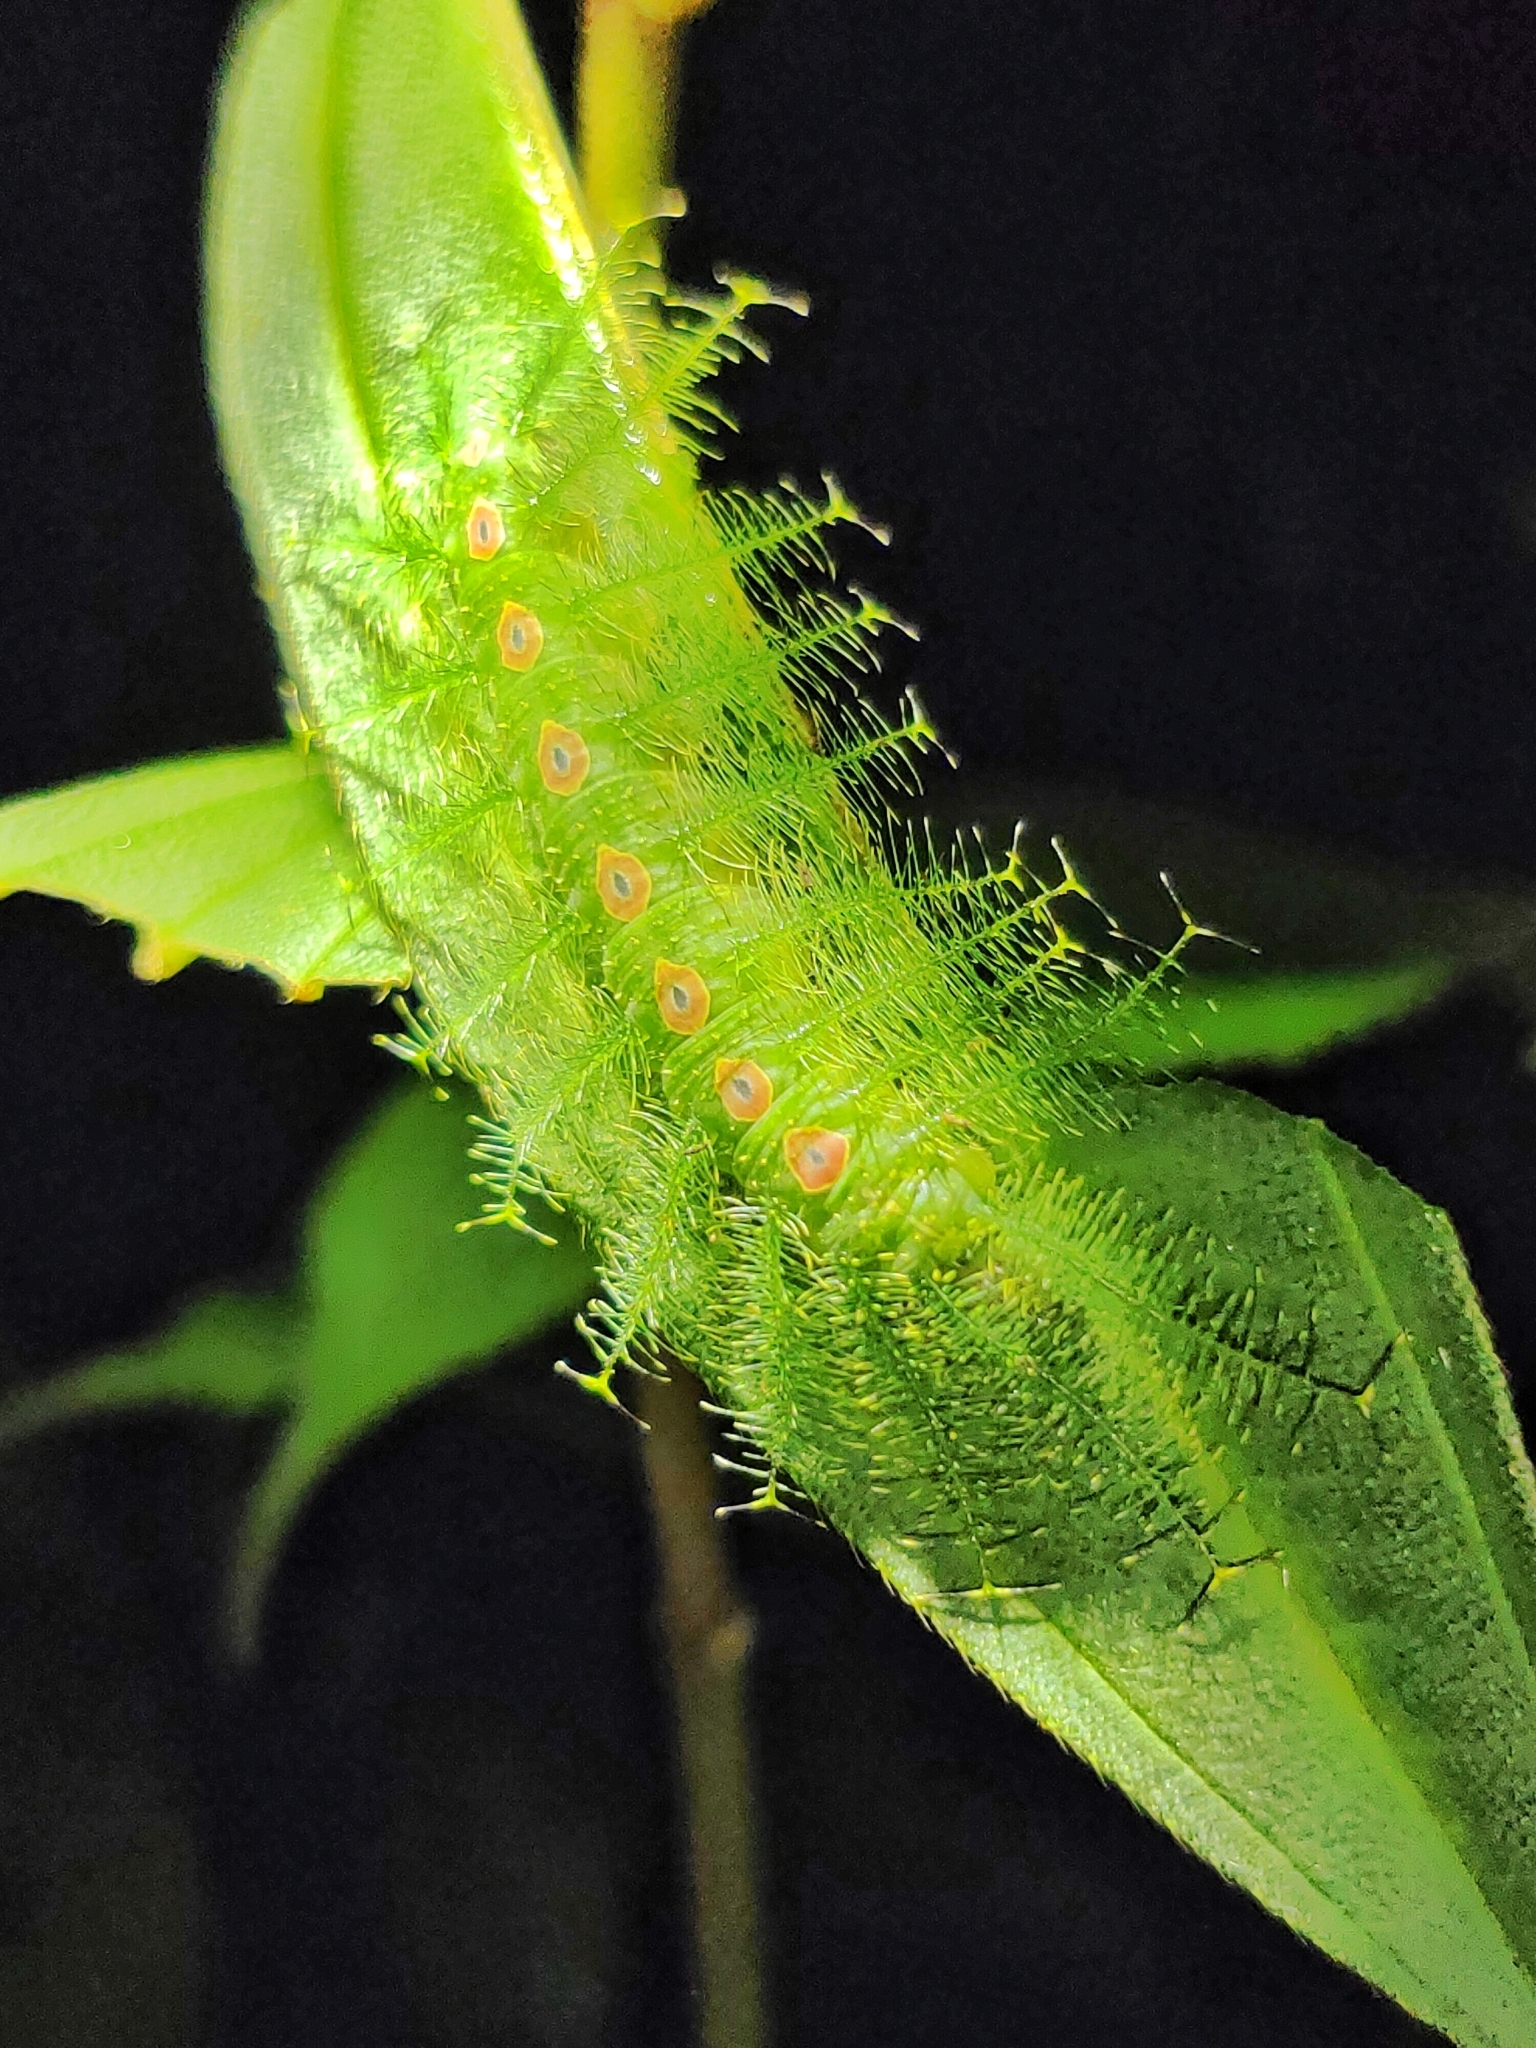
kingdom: Animalia
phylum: Arthropoda
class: Insecta
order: Lepidoptera
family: Nymphalidae
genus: Tanaecia
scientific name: Tanaecia iapis
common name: Horsfield's baron
